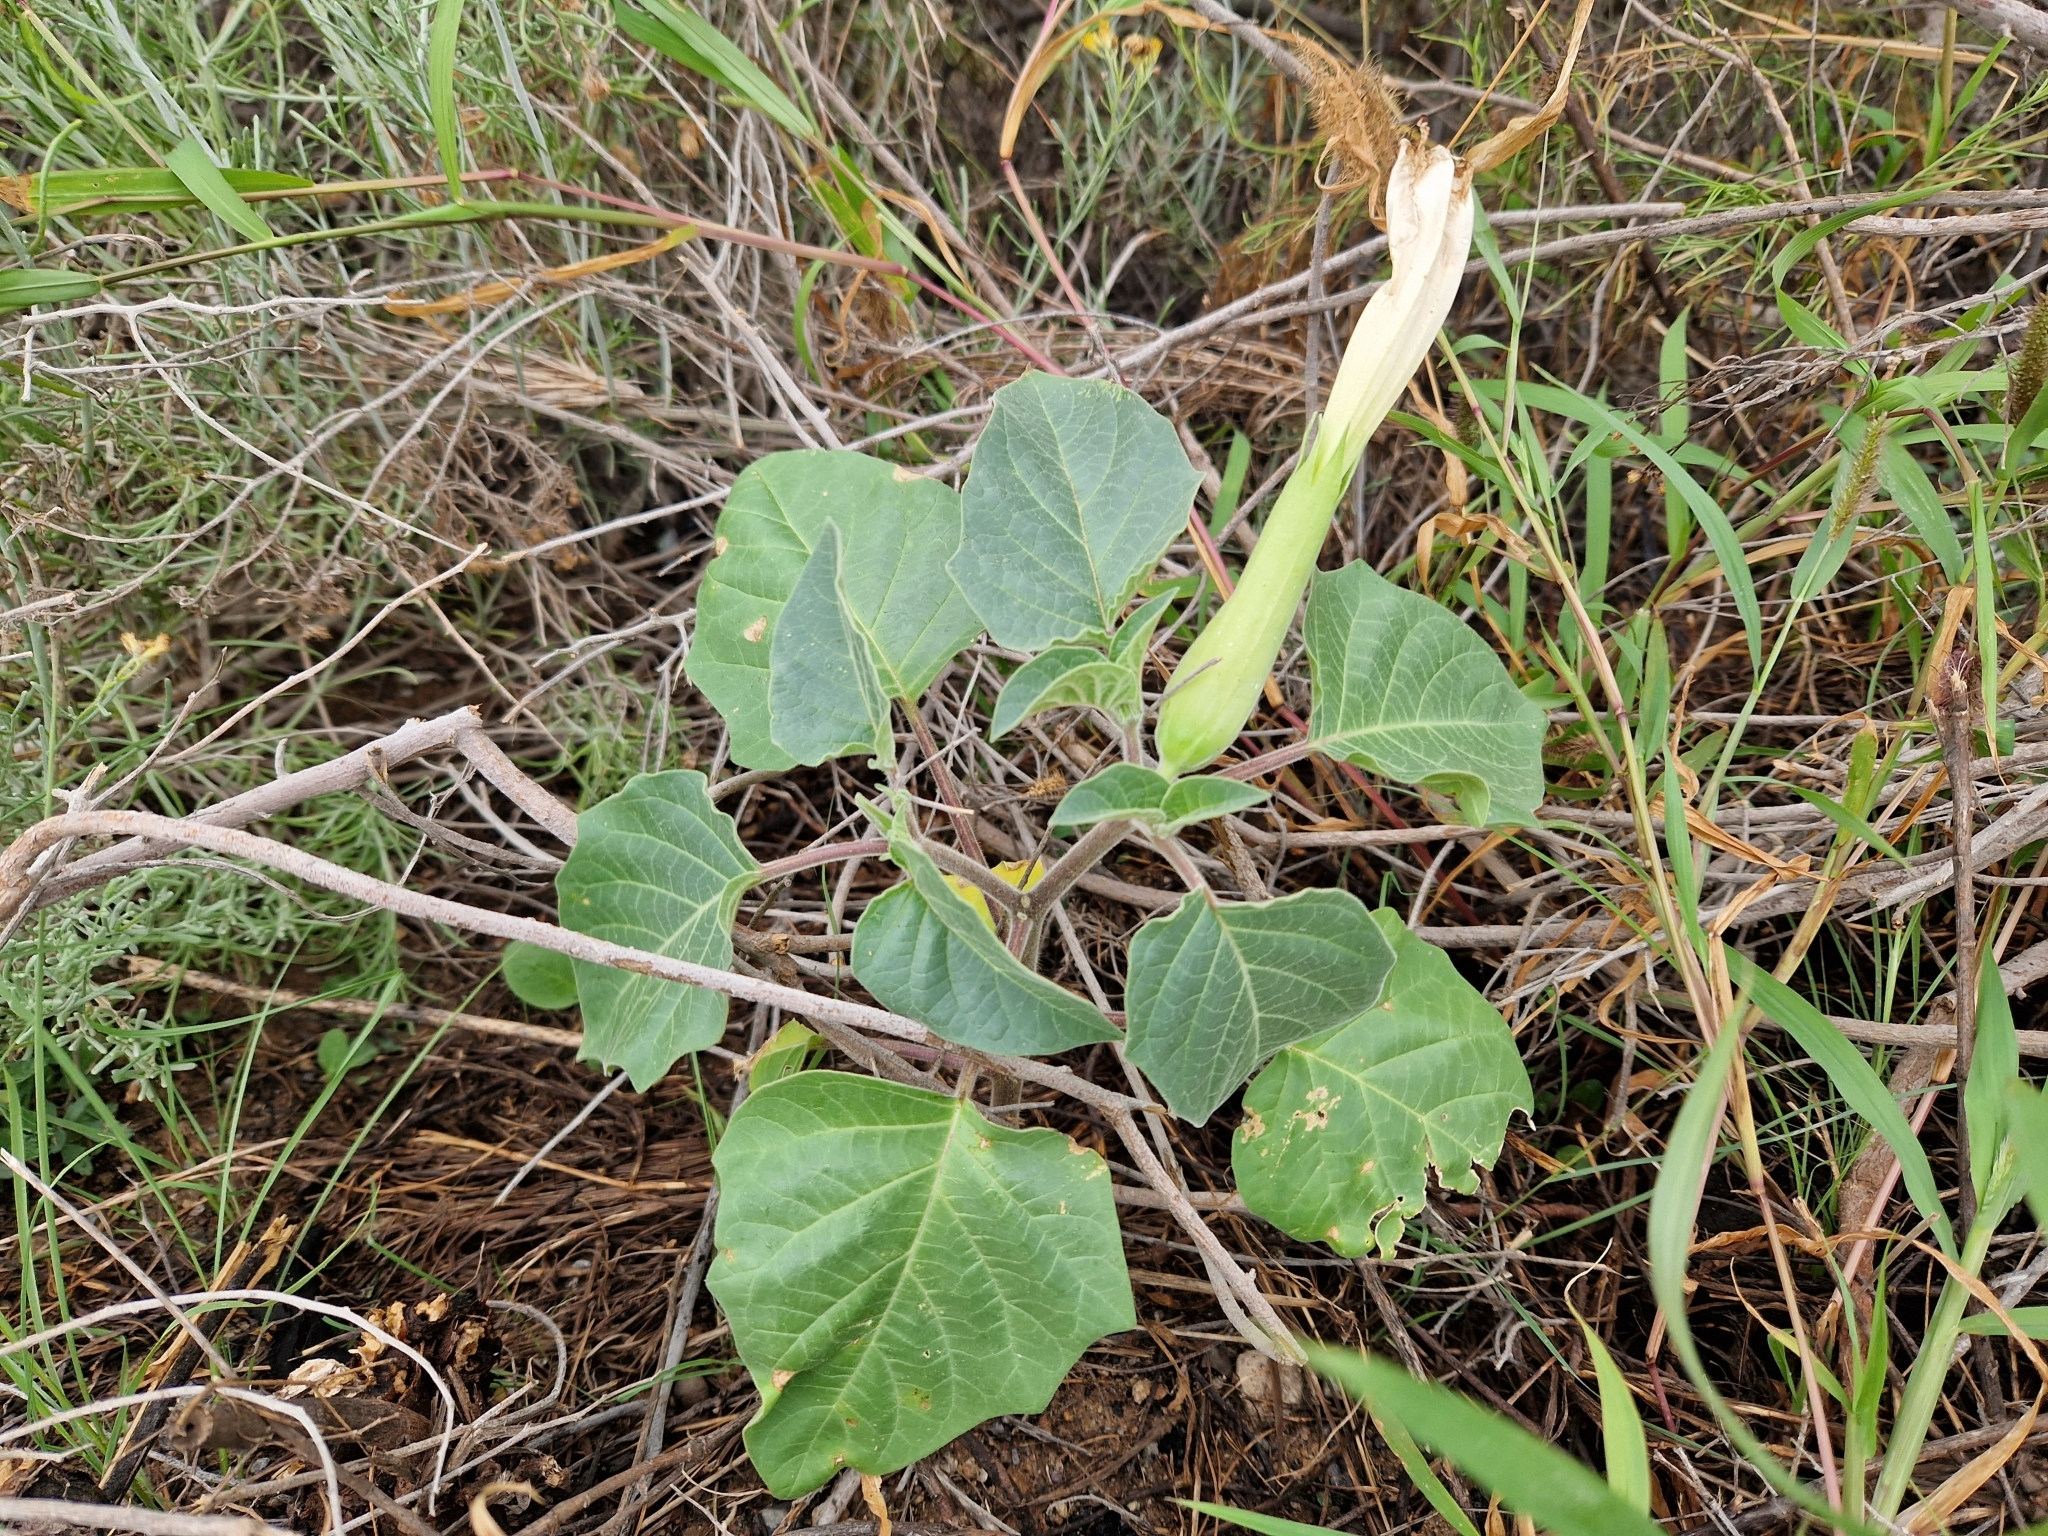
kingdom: Plantae
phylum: Tracheophyta
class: Magnoliopsida
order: Solanales
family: Solanaceae
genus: Datura
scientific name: Datura innoxia
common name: Downy thorn-apple
